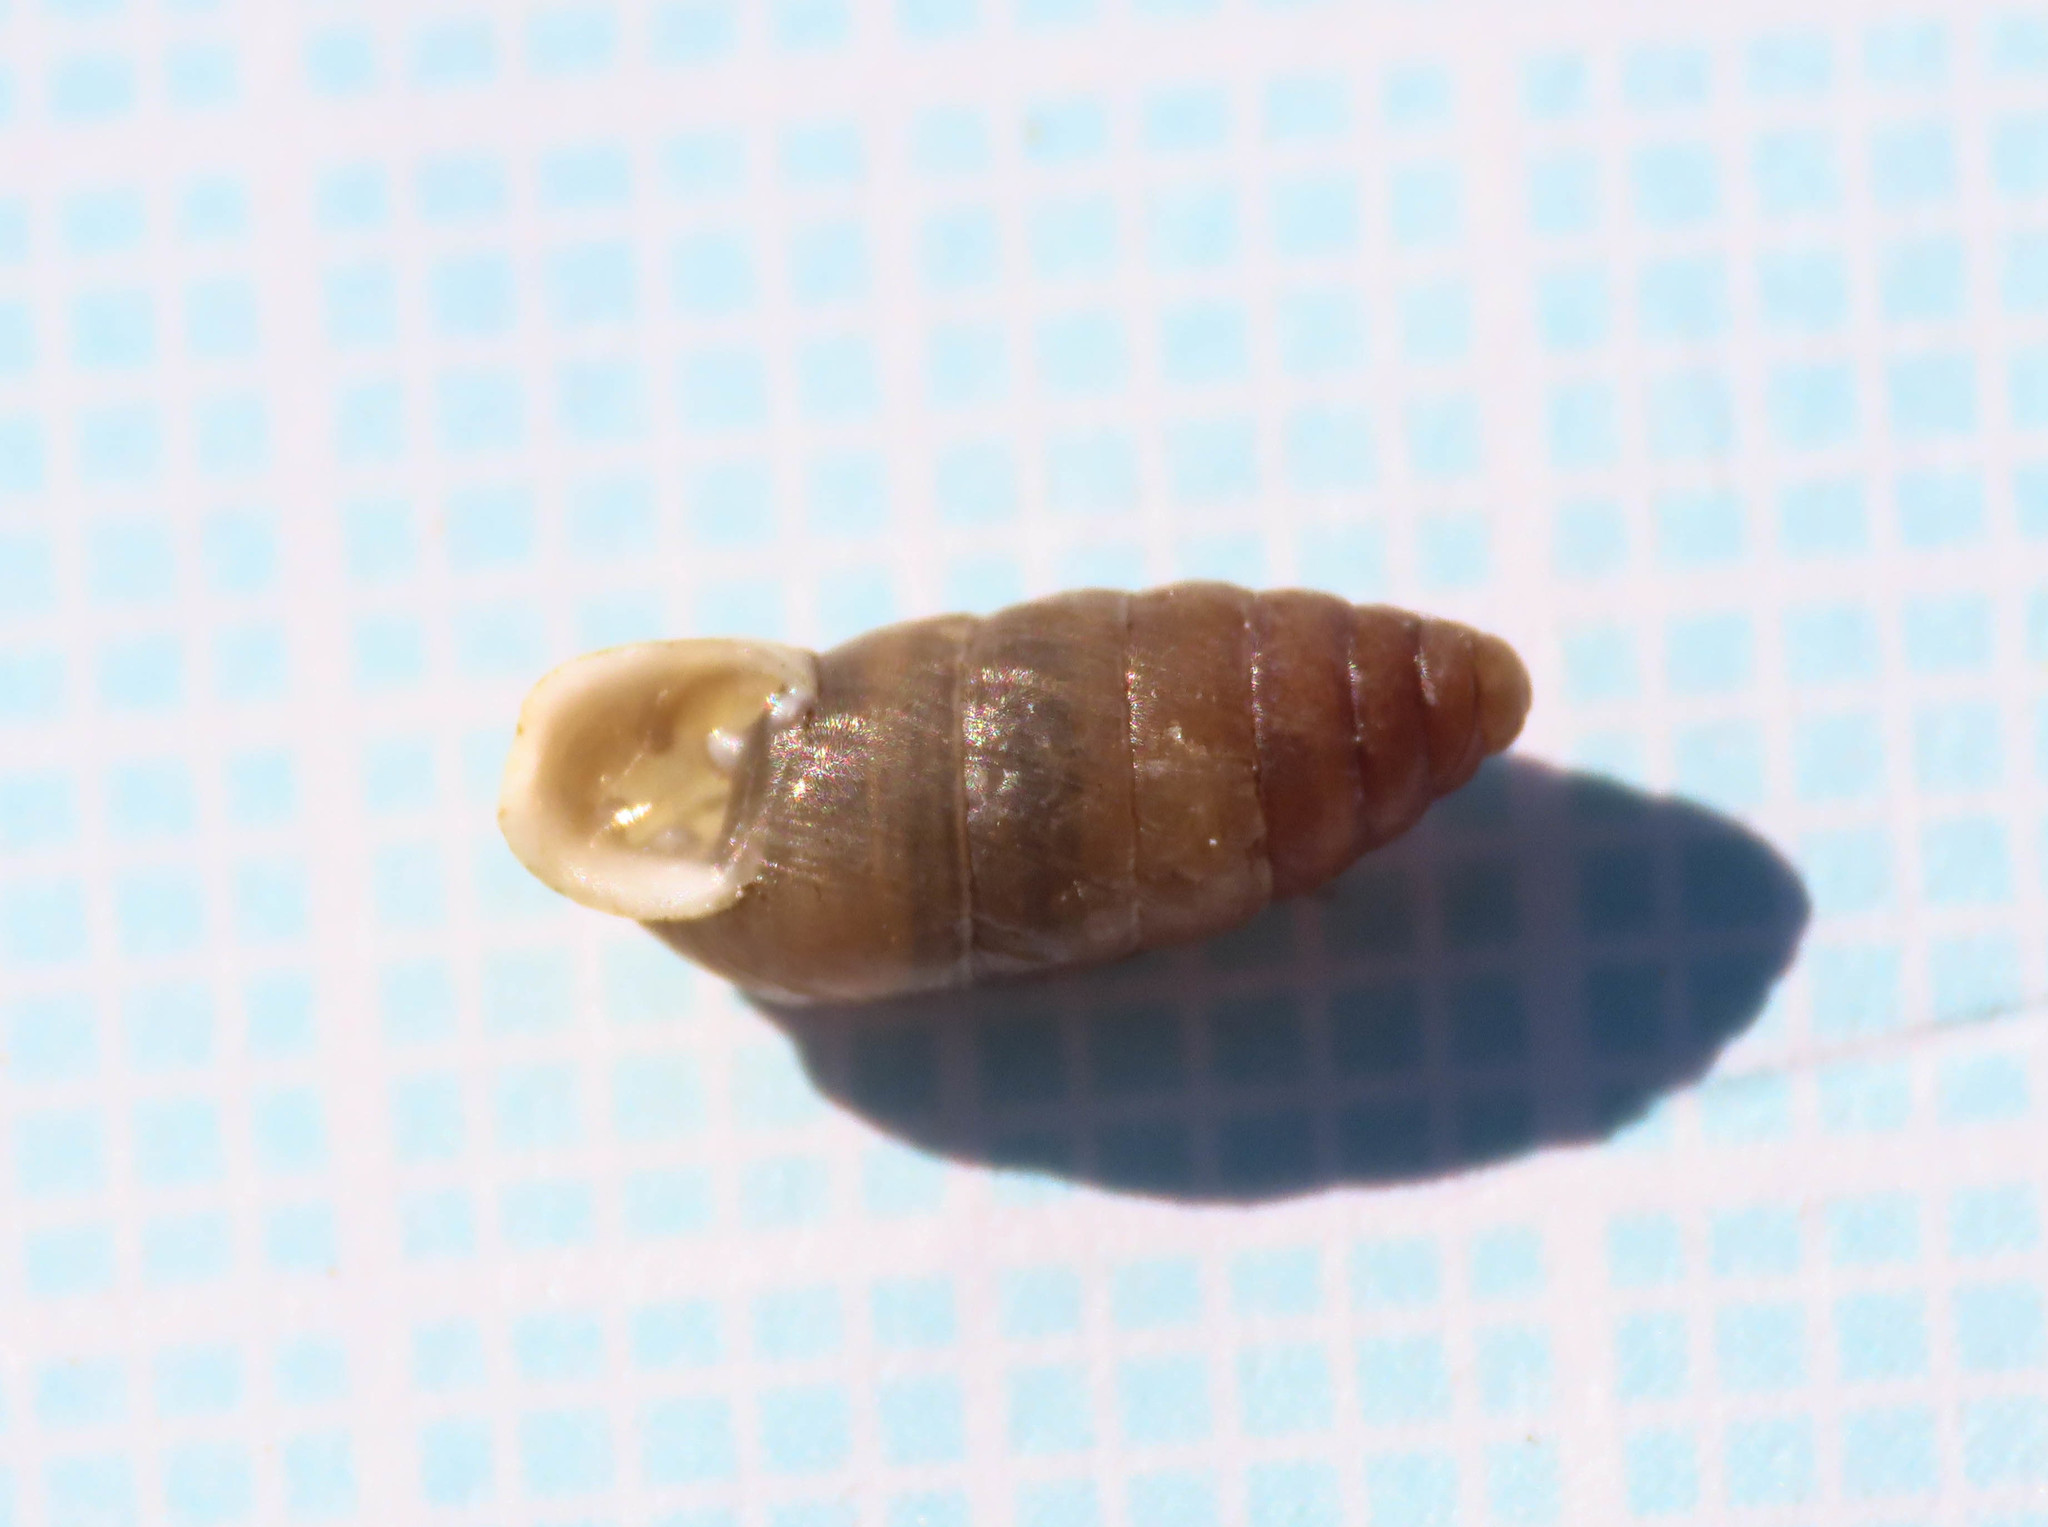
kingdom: Animalia
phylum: Mollusca
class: Gastropoda
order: Stylommatophora
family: Enidae
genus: Jaminia
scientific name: Jaminia quadridens
